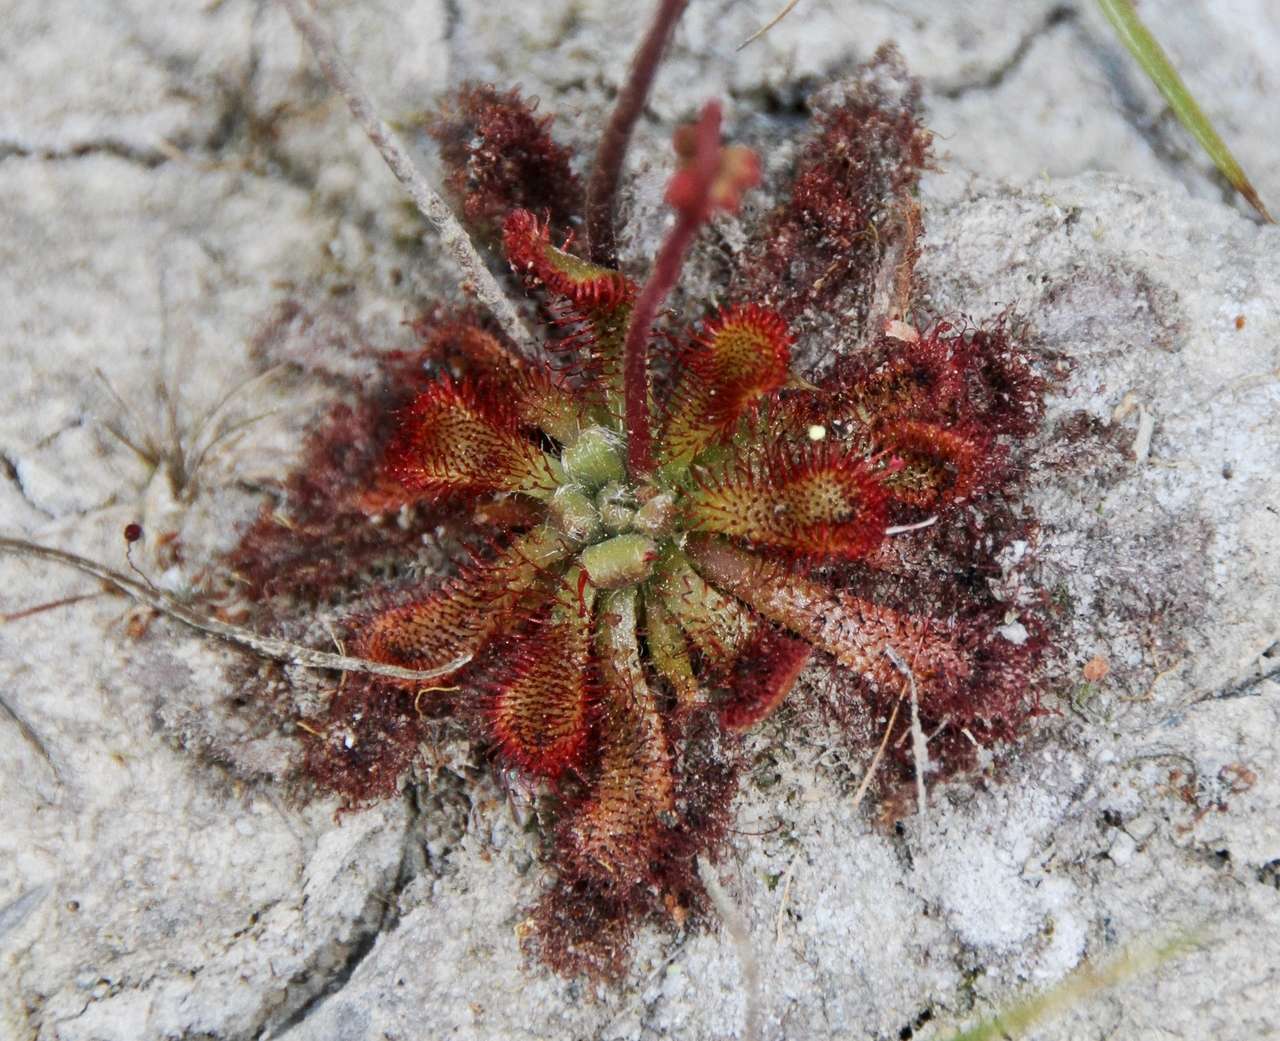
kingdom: Plantae
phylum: Tracheophyta
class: Magnoliopsida
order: Caryophyllales
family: Droseraceae
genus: Drosera
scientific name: Drosera spatulata
